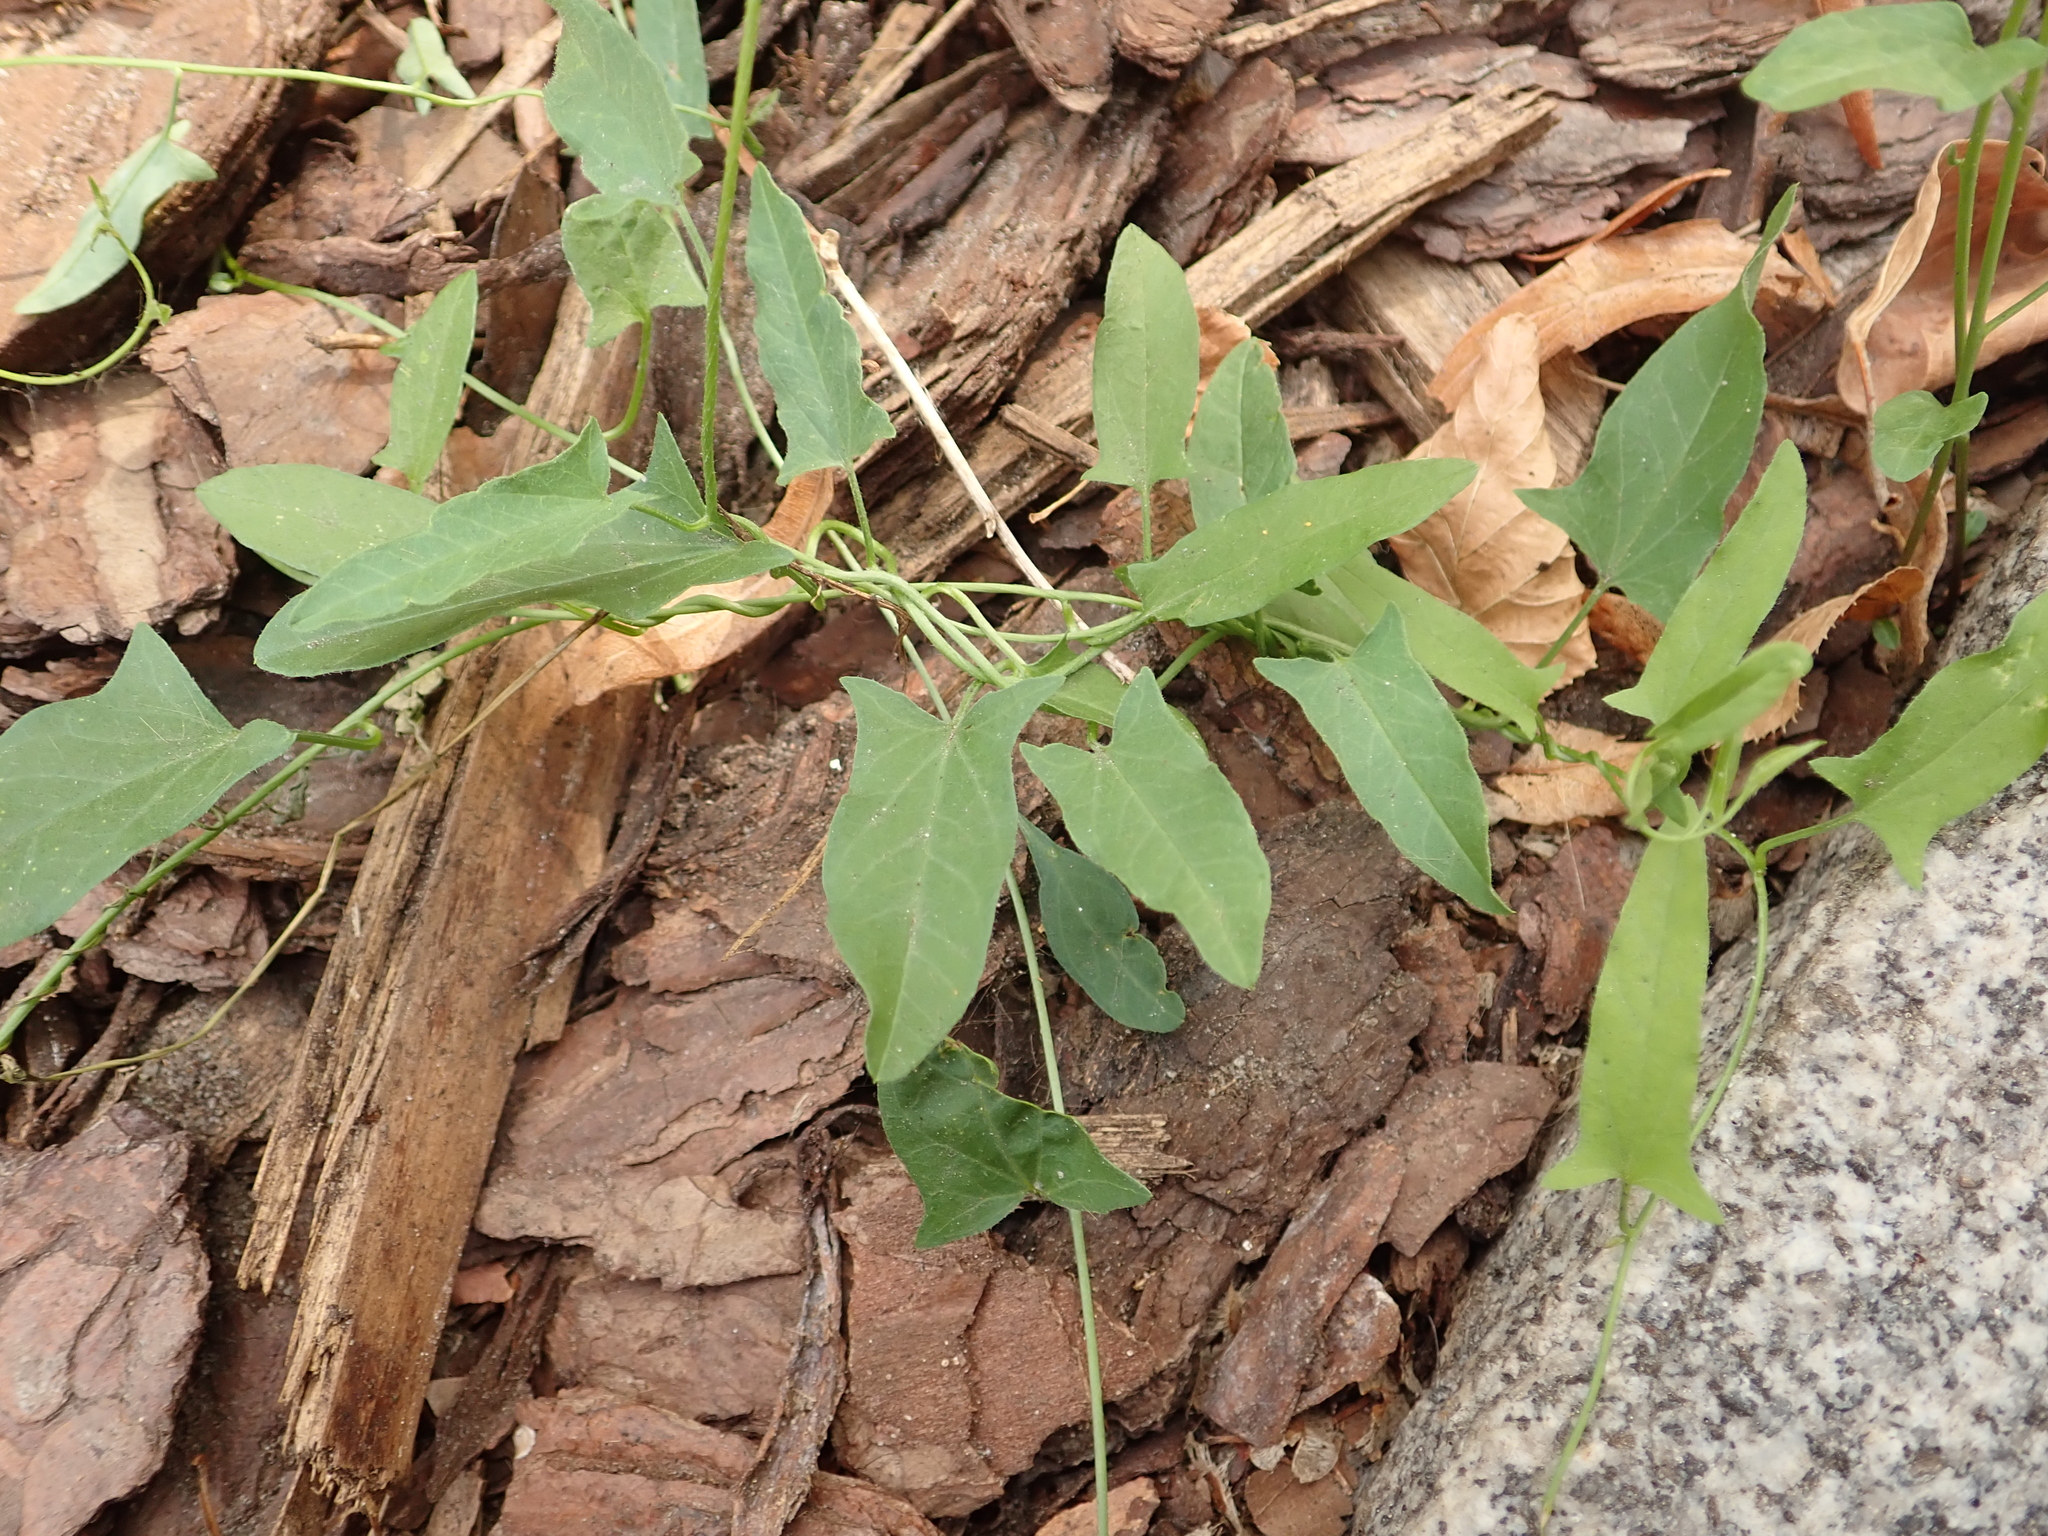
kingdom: Plantae
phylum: Tracheophyta
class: Magnoliopsida
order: Solanales
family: Convolvulaceae
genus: Convolvulus
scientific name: Convolvulus arvensis
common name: Field bindweed
